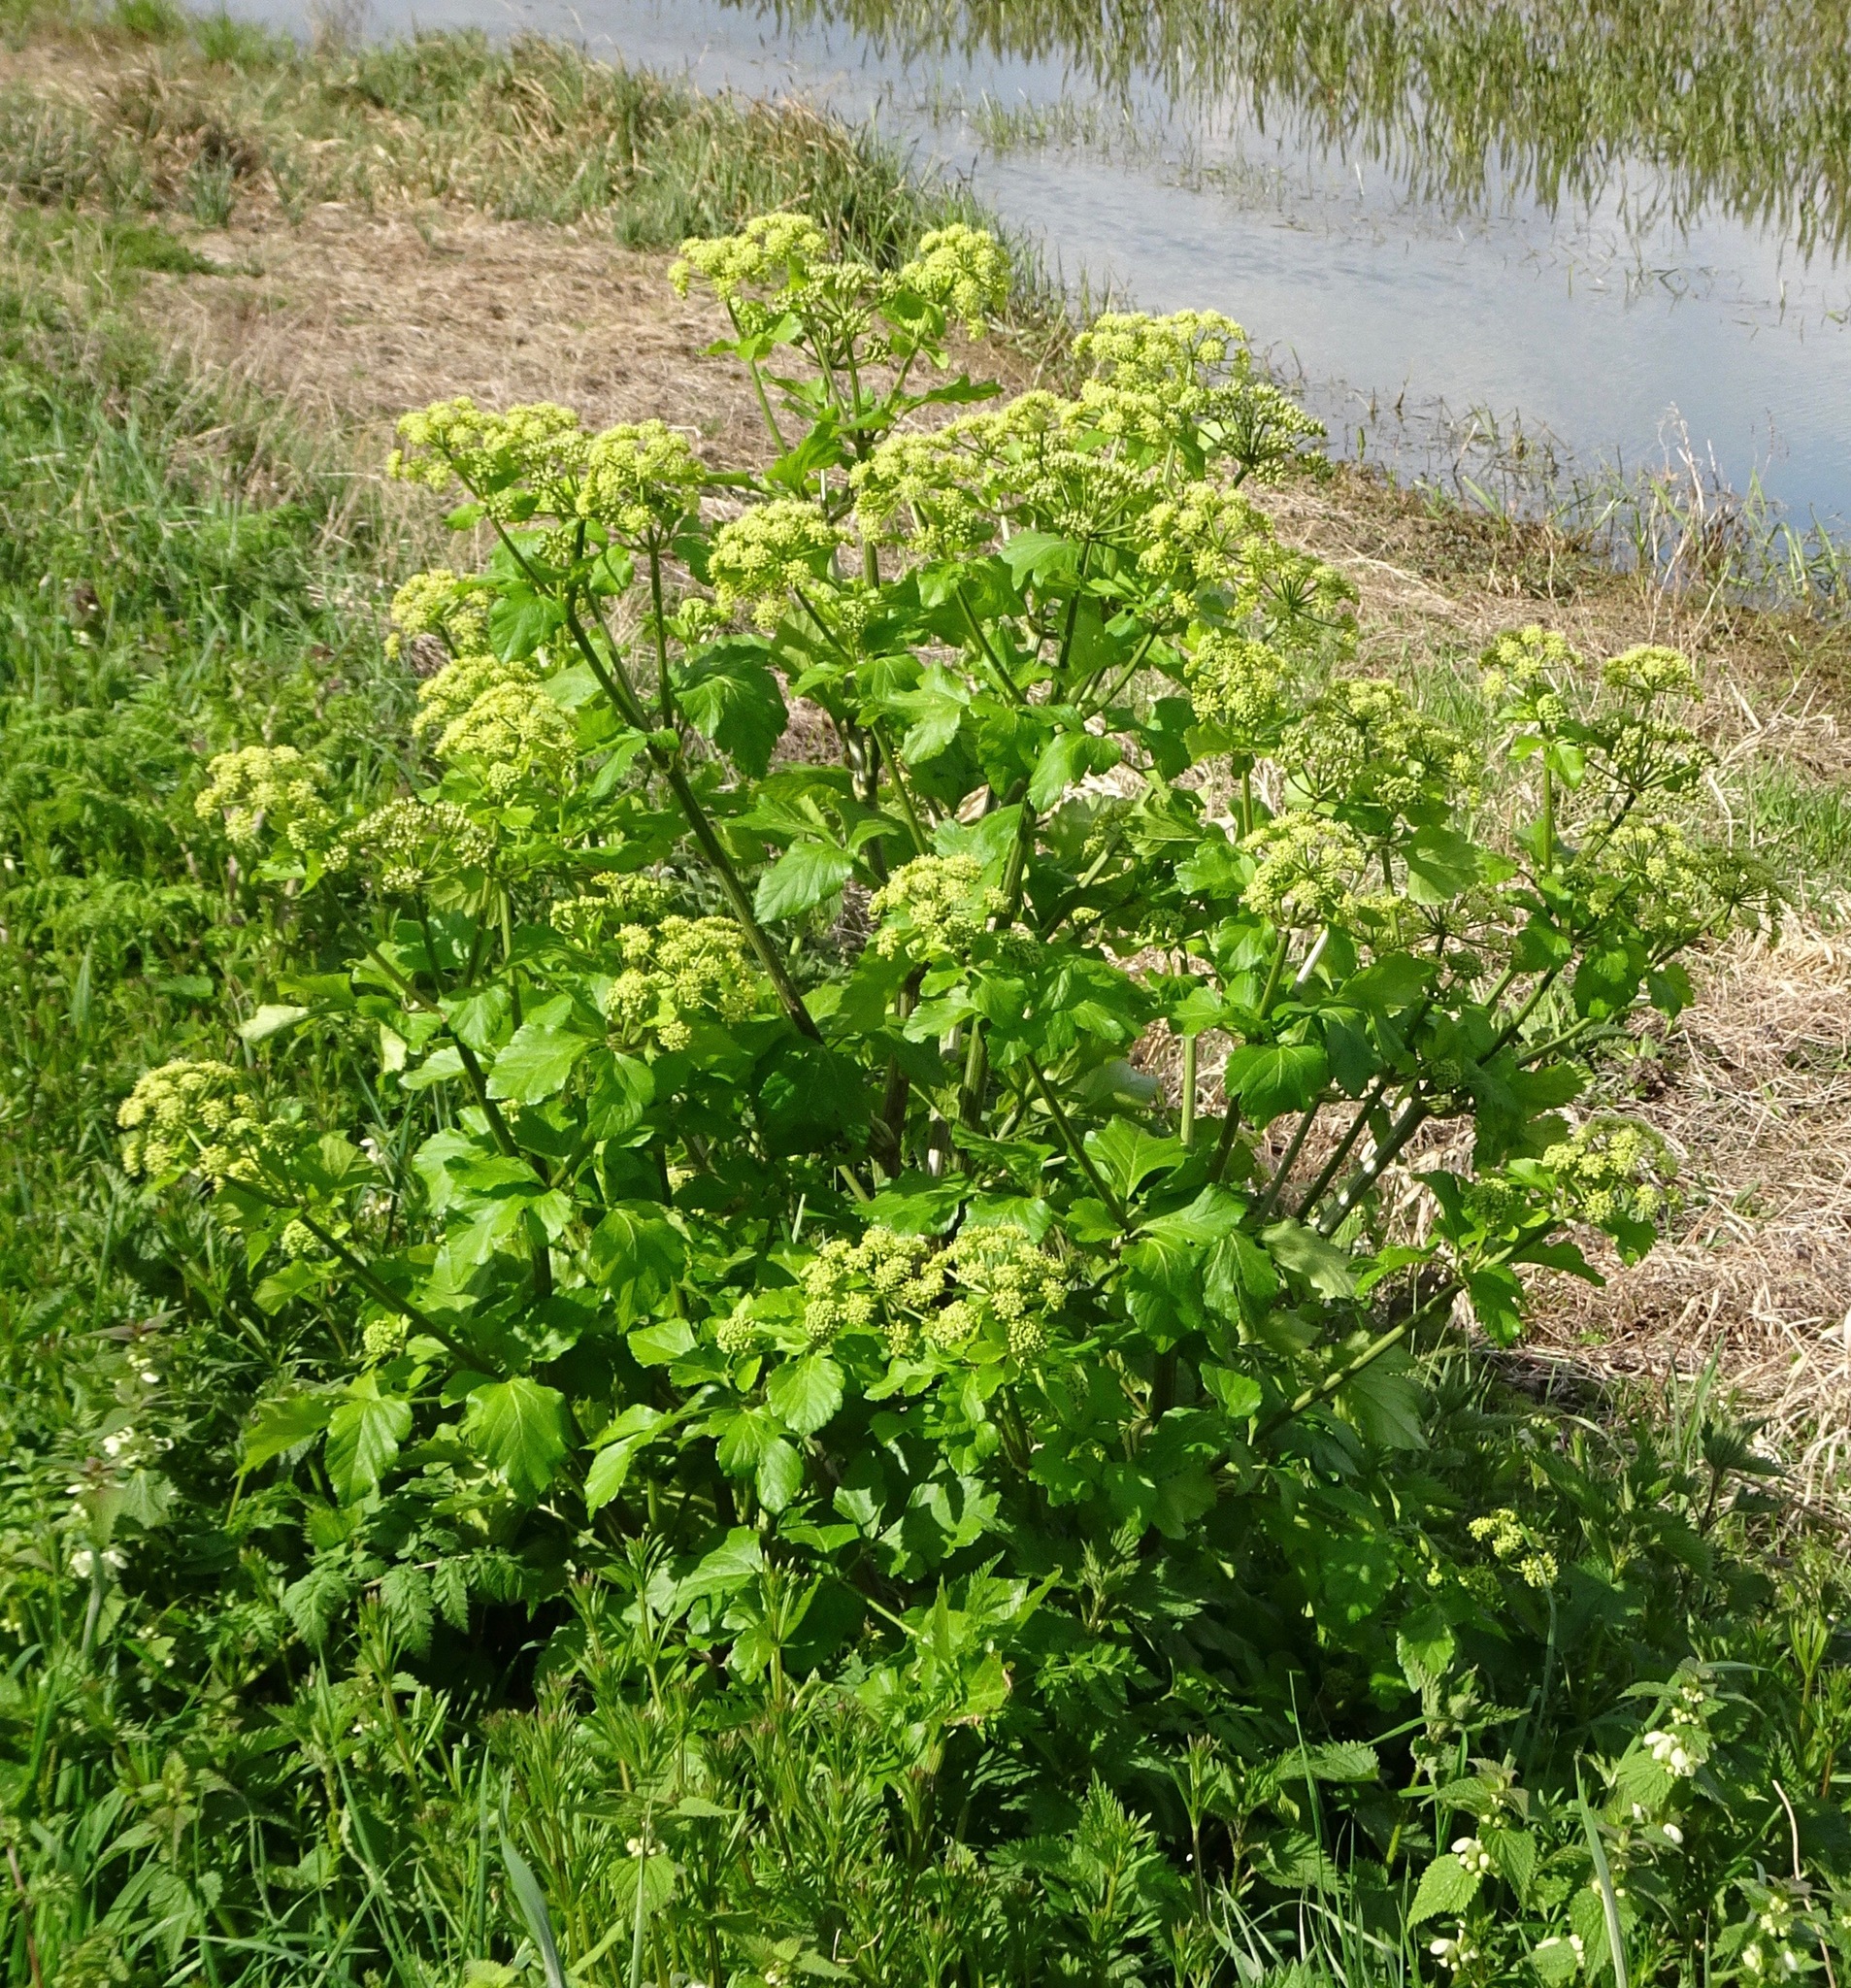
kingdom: Plantae
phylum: Tracheophyta
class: Magnoliopsida
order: Apiales
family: Apiaceae
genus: Smyrnium
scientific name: Smyrnium olusatrum
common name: Alexanders
